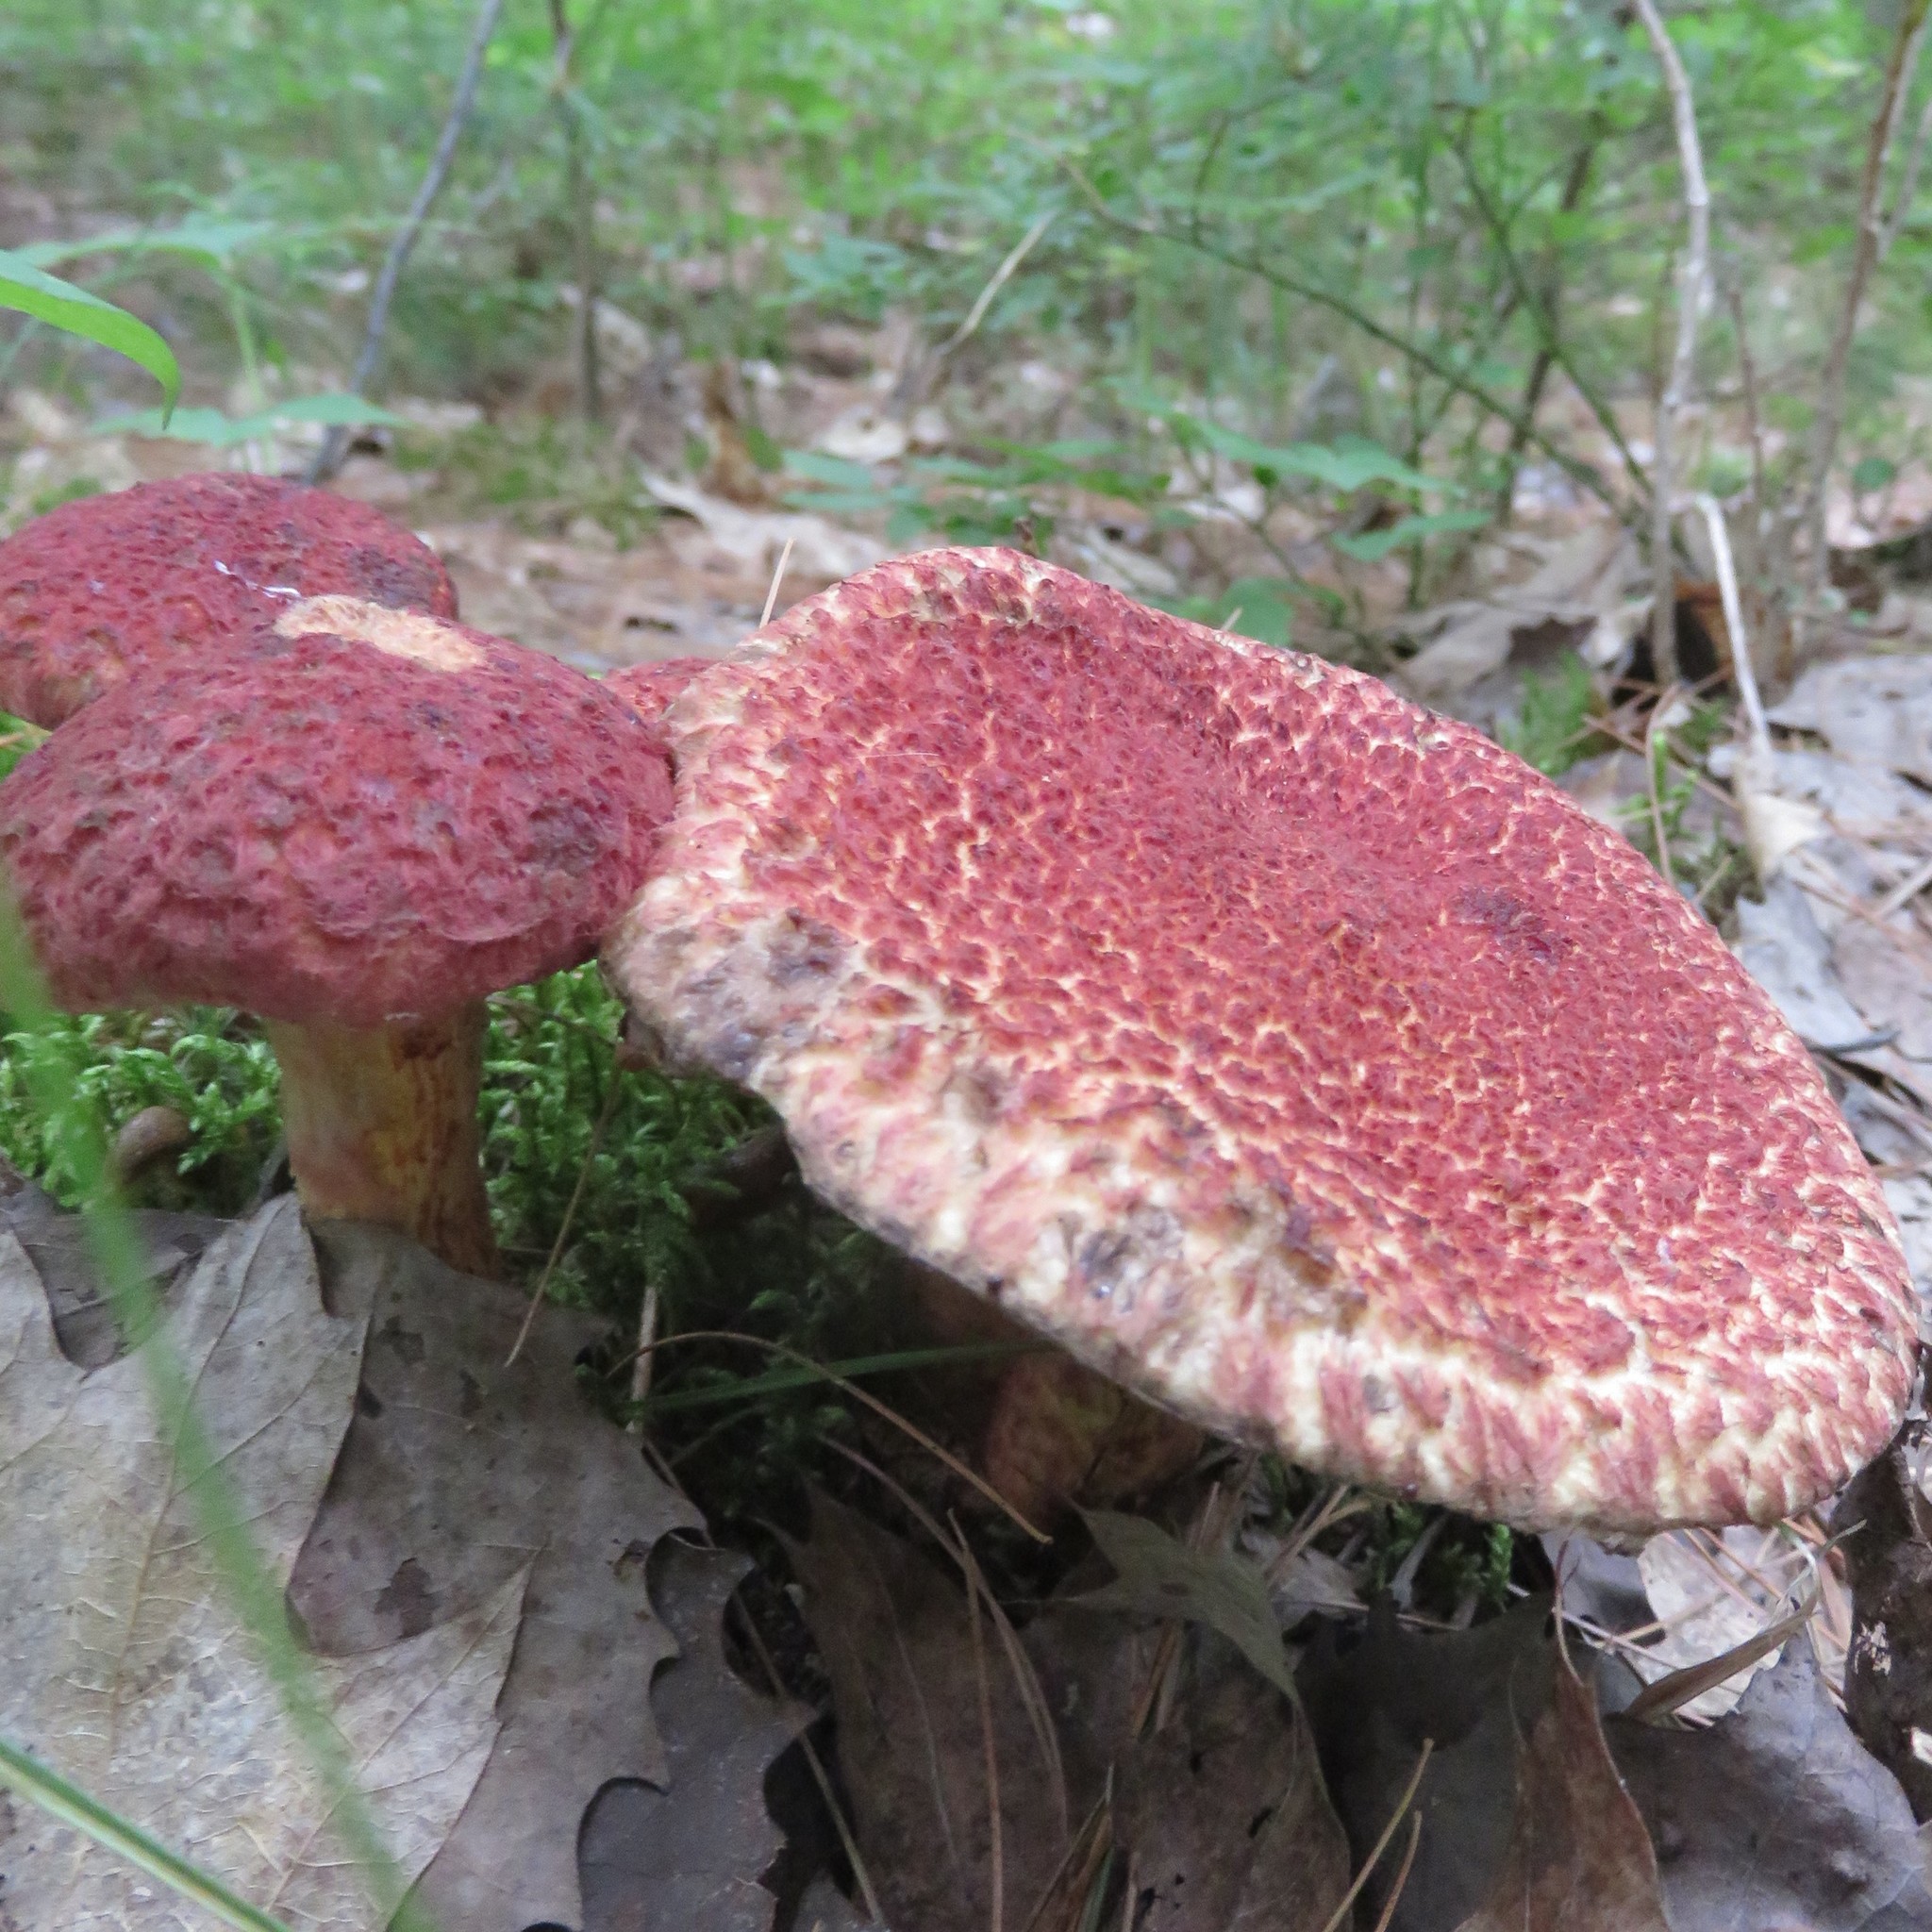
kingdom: Fungi
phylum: Basidiomycota
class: Agaricomycetes
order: Boletales
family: Suillaceae
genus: Suillus
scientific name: Suillus spraguei
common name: Painted suillus
